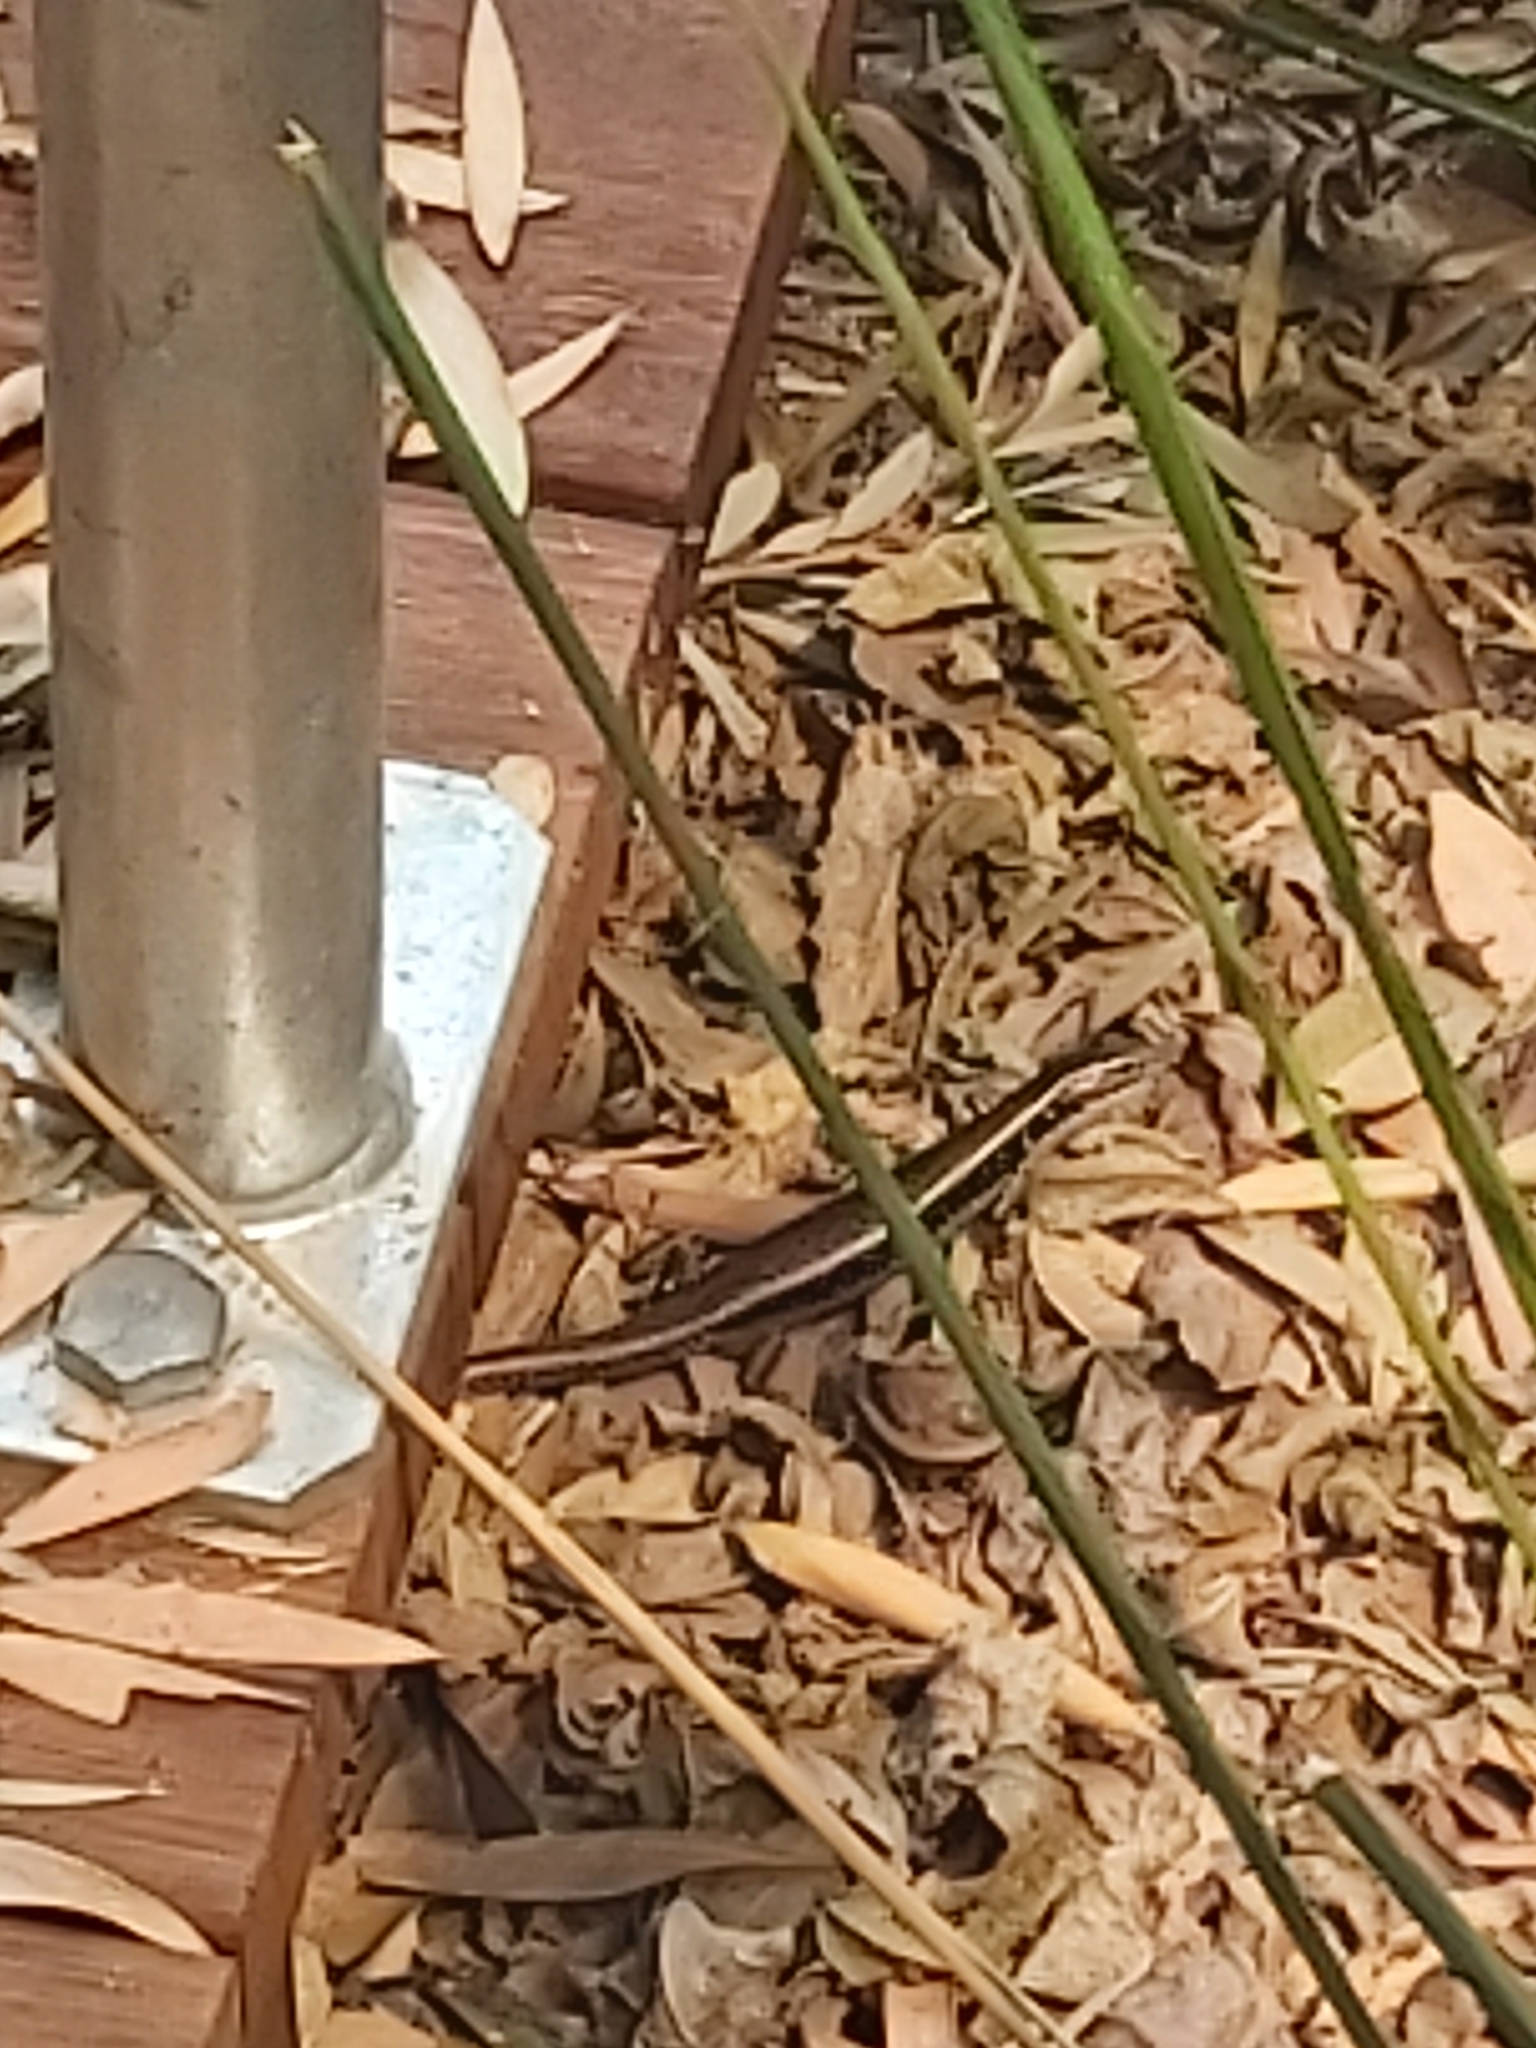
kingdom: Animalia
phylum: Chordata
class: Squamata
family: Scincidae
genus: Eulamprus
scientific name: Eulamprus quoyii
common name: Eastern water skink
